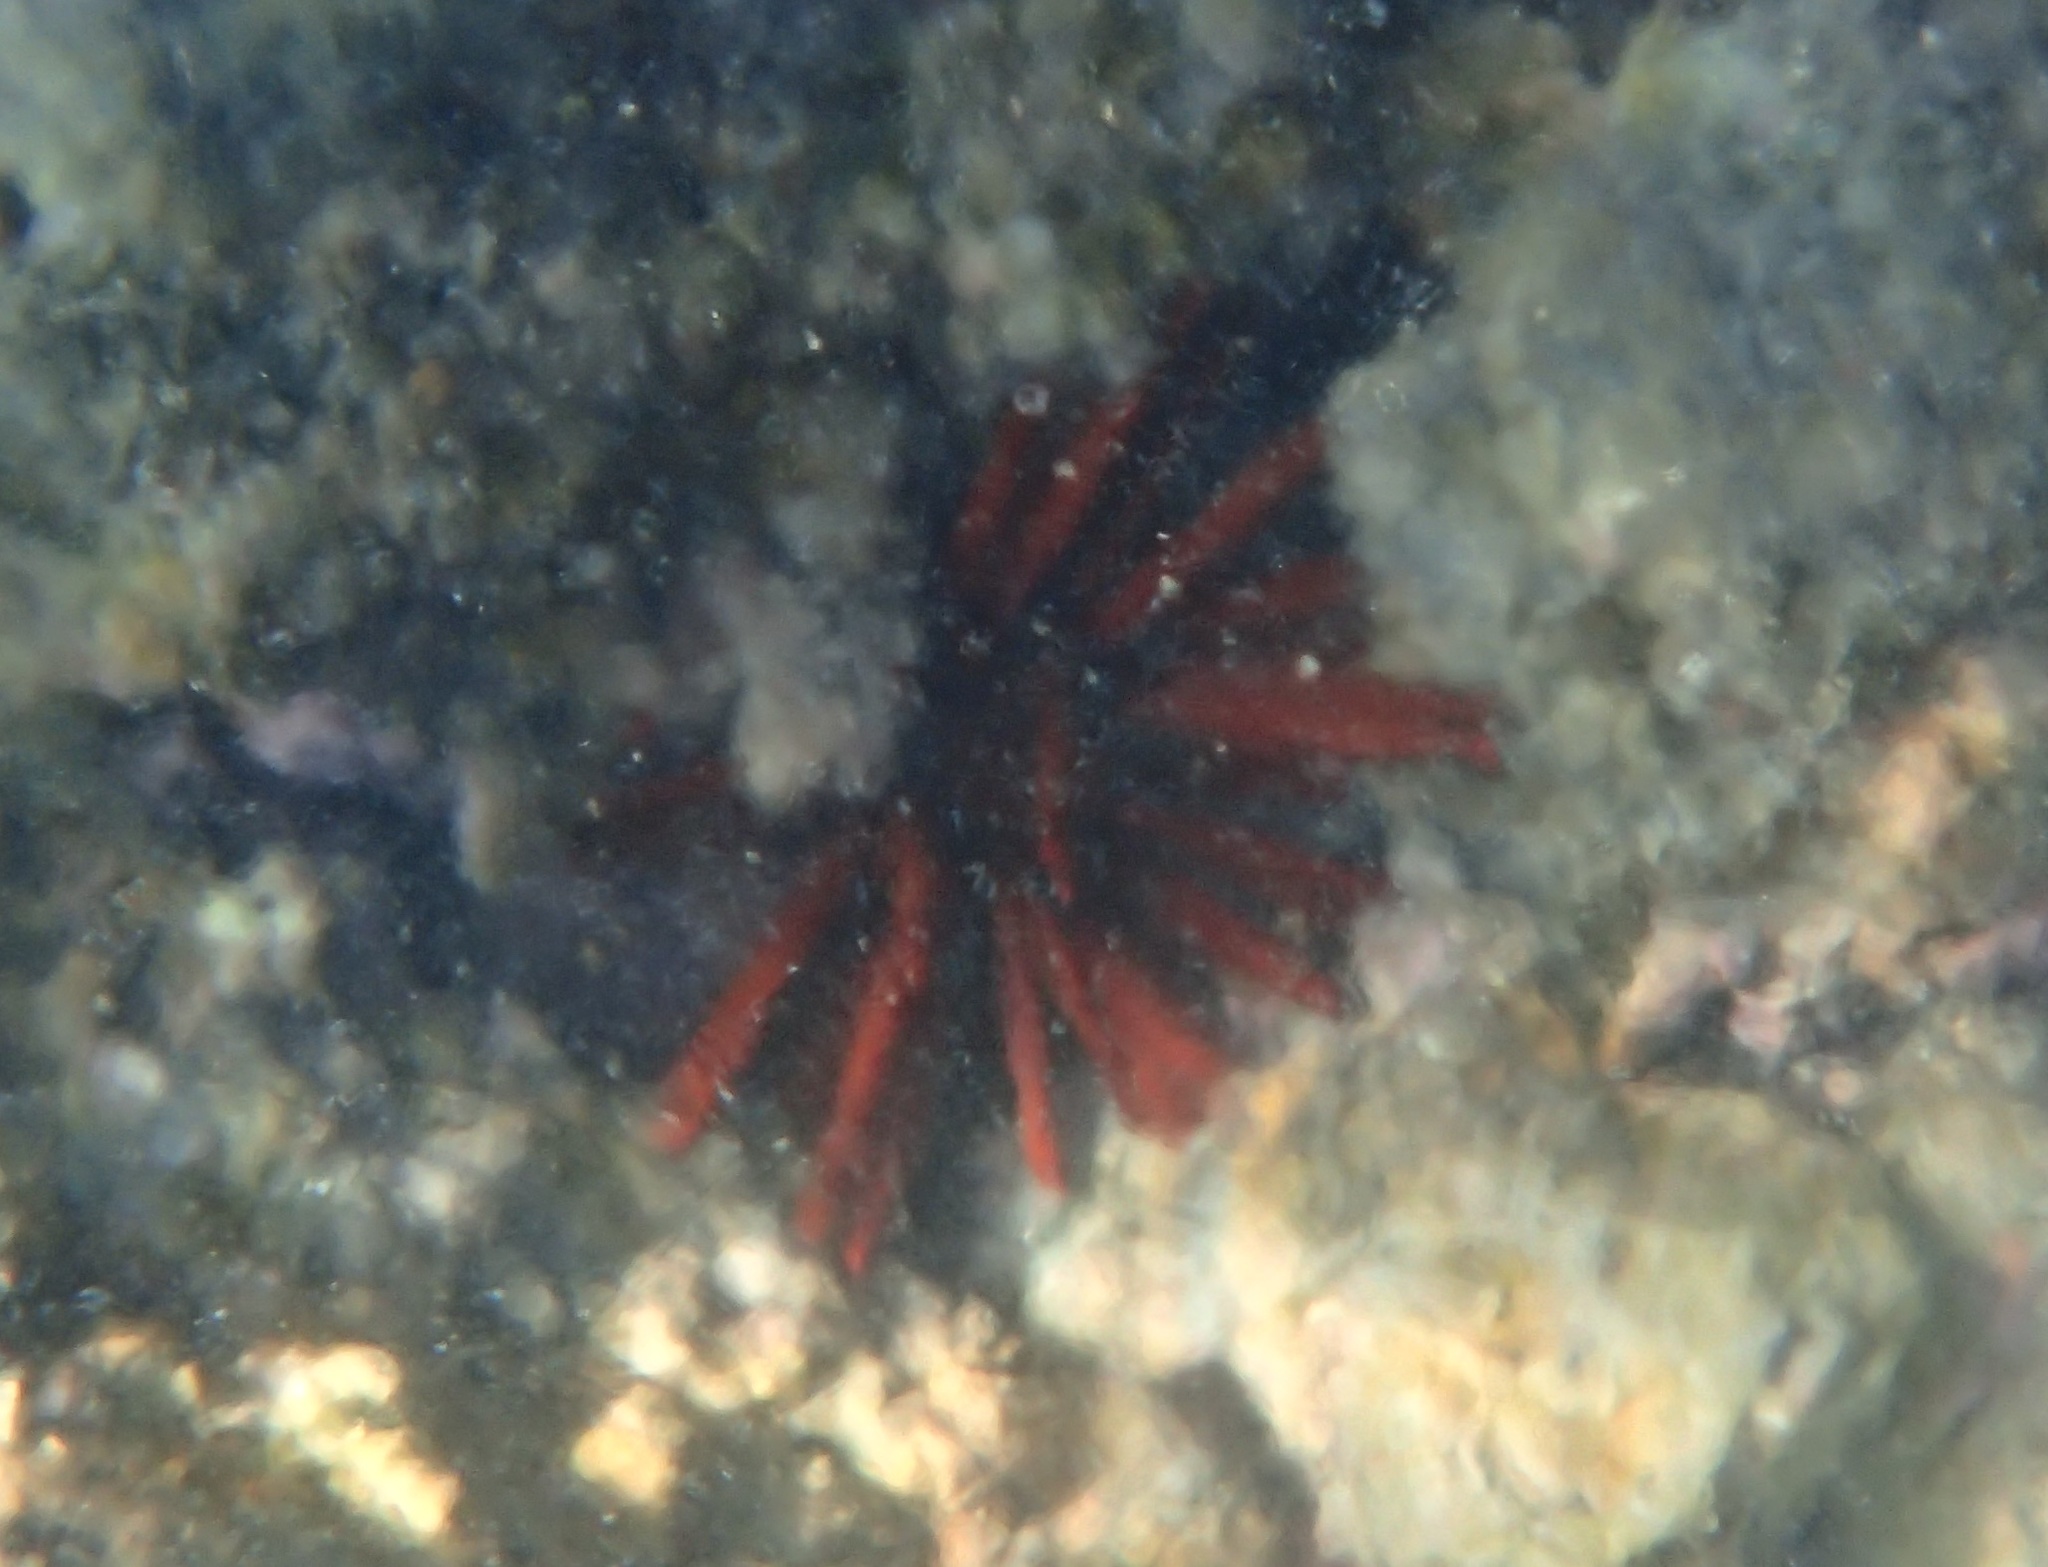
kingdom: Animalia
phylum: Echinodermata
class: Echinoidea
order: Camarodonta
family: Echinometridae
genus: Heterocentrotus
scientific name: Heterocentrotus mamillatus
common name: Slate pencil urchin
